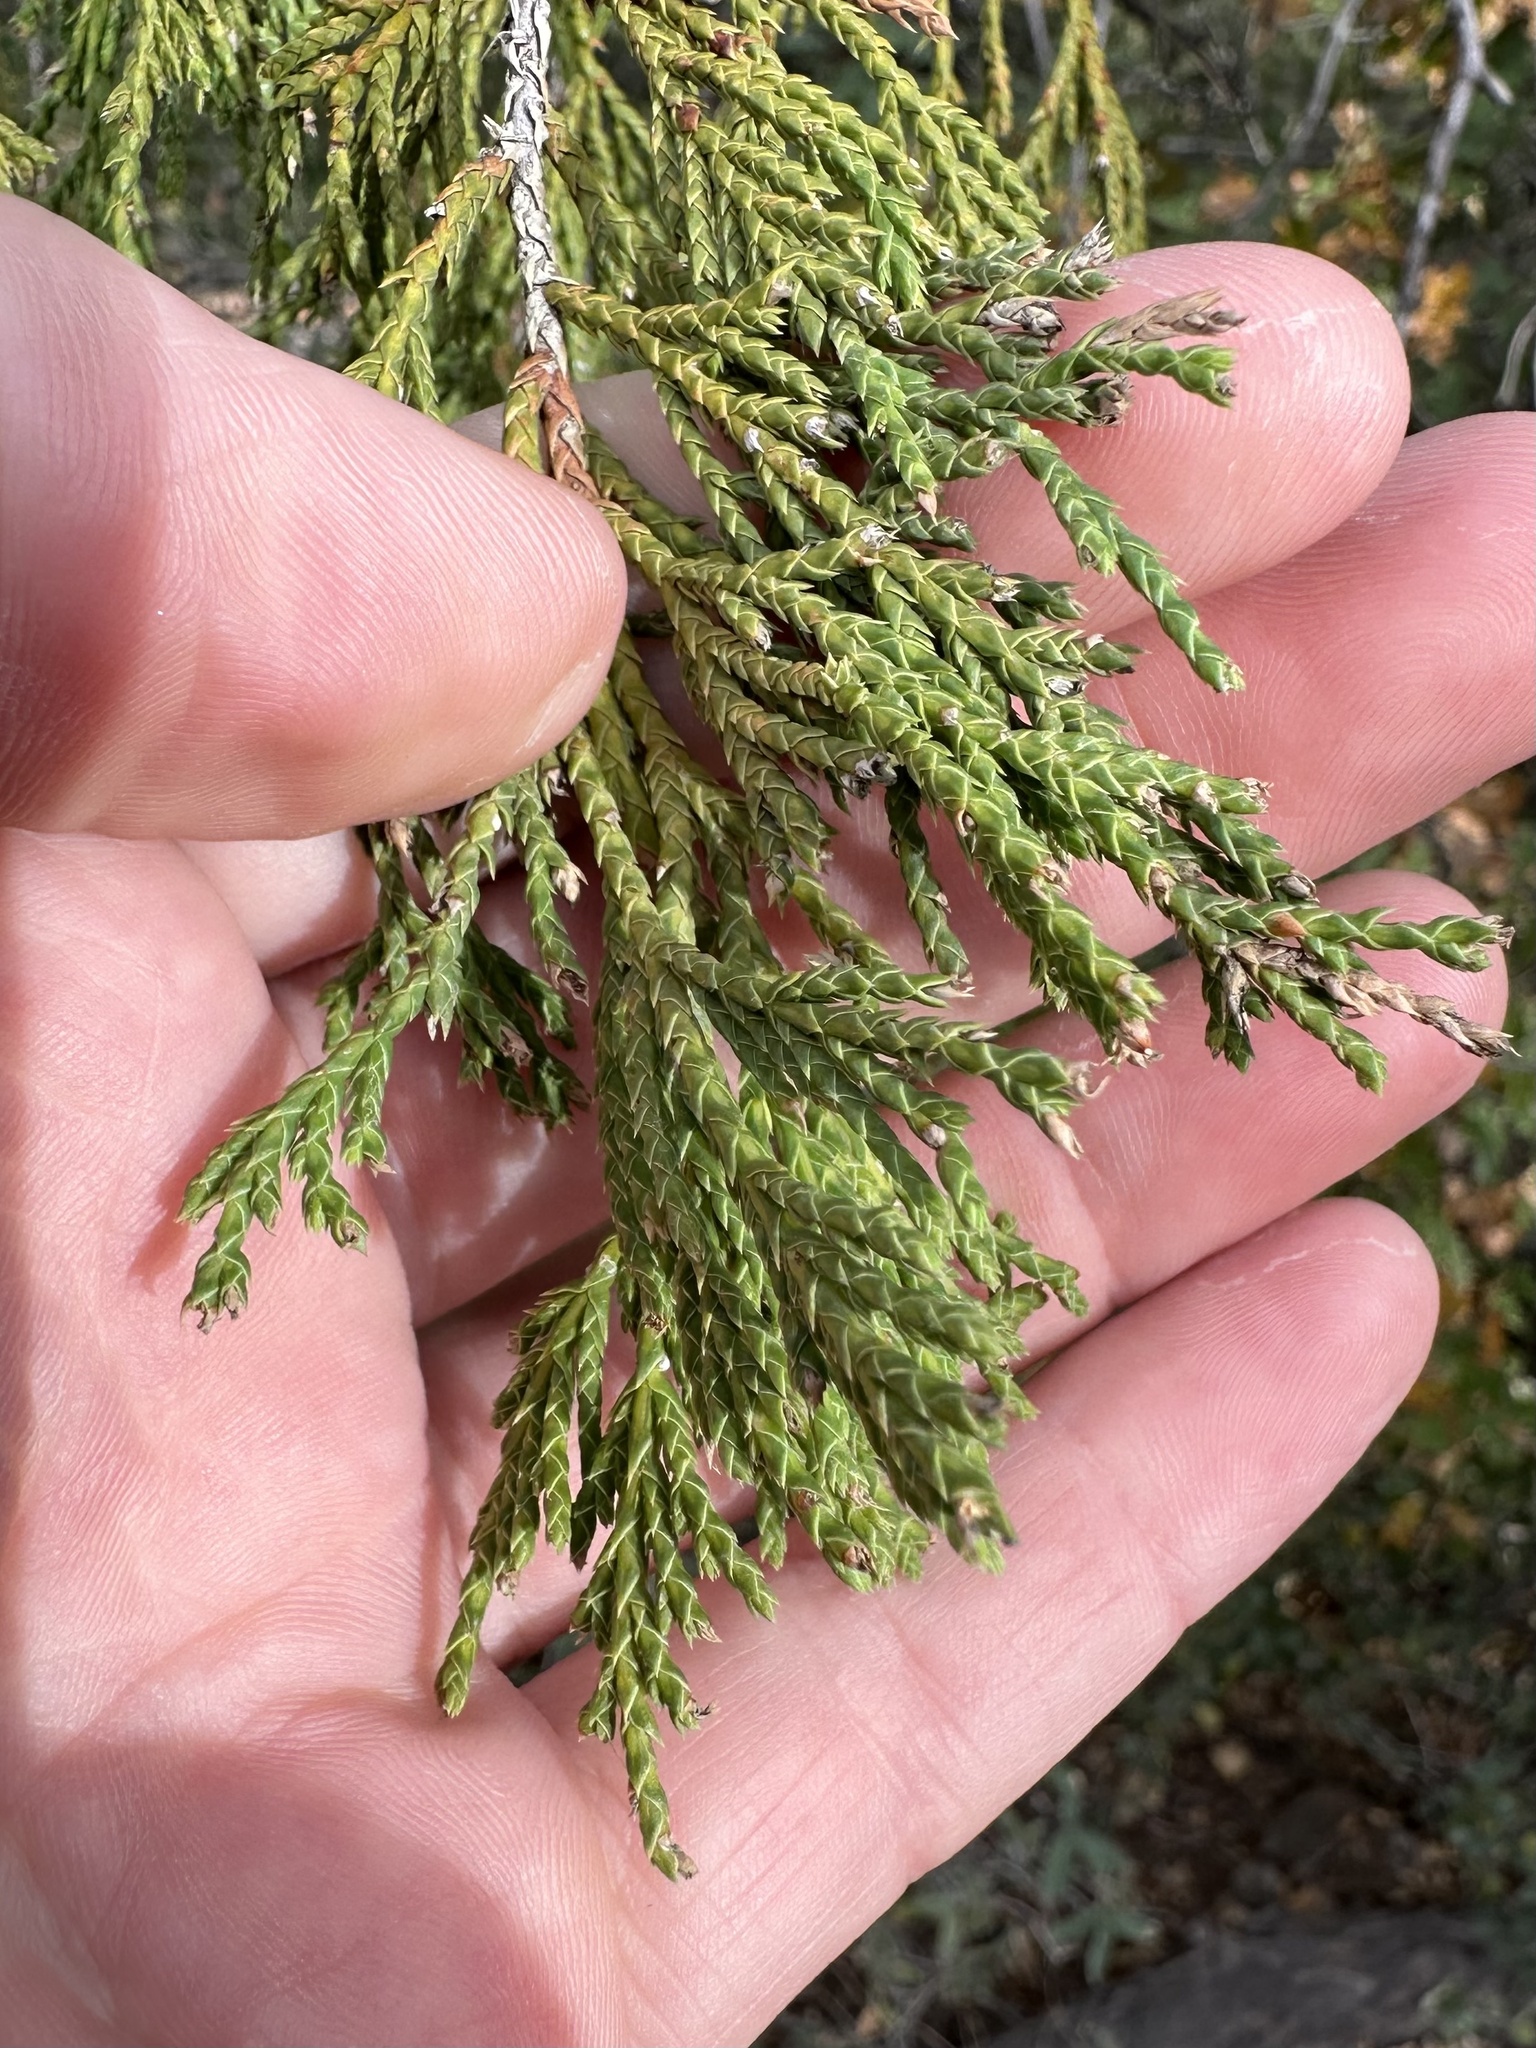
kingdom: Plantae
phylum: Tracheophyta
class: Pinopsida
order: Pinales
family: Cupressaceae
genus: Juniperus
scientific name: Juniperus flaccida
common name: Drooping juniper
